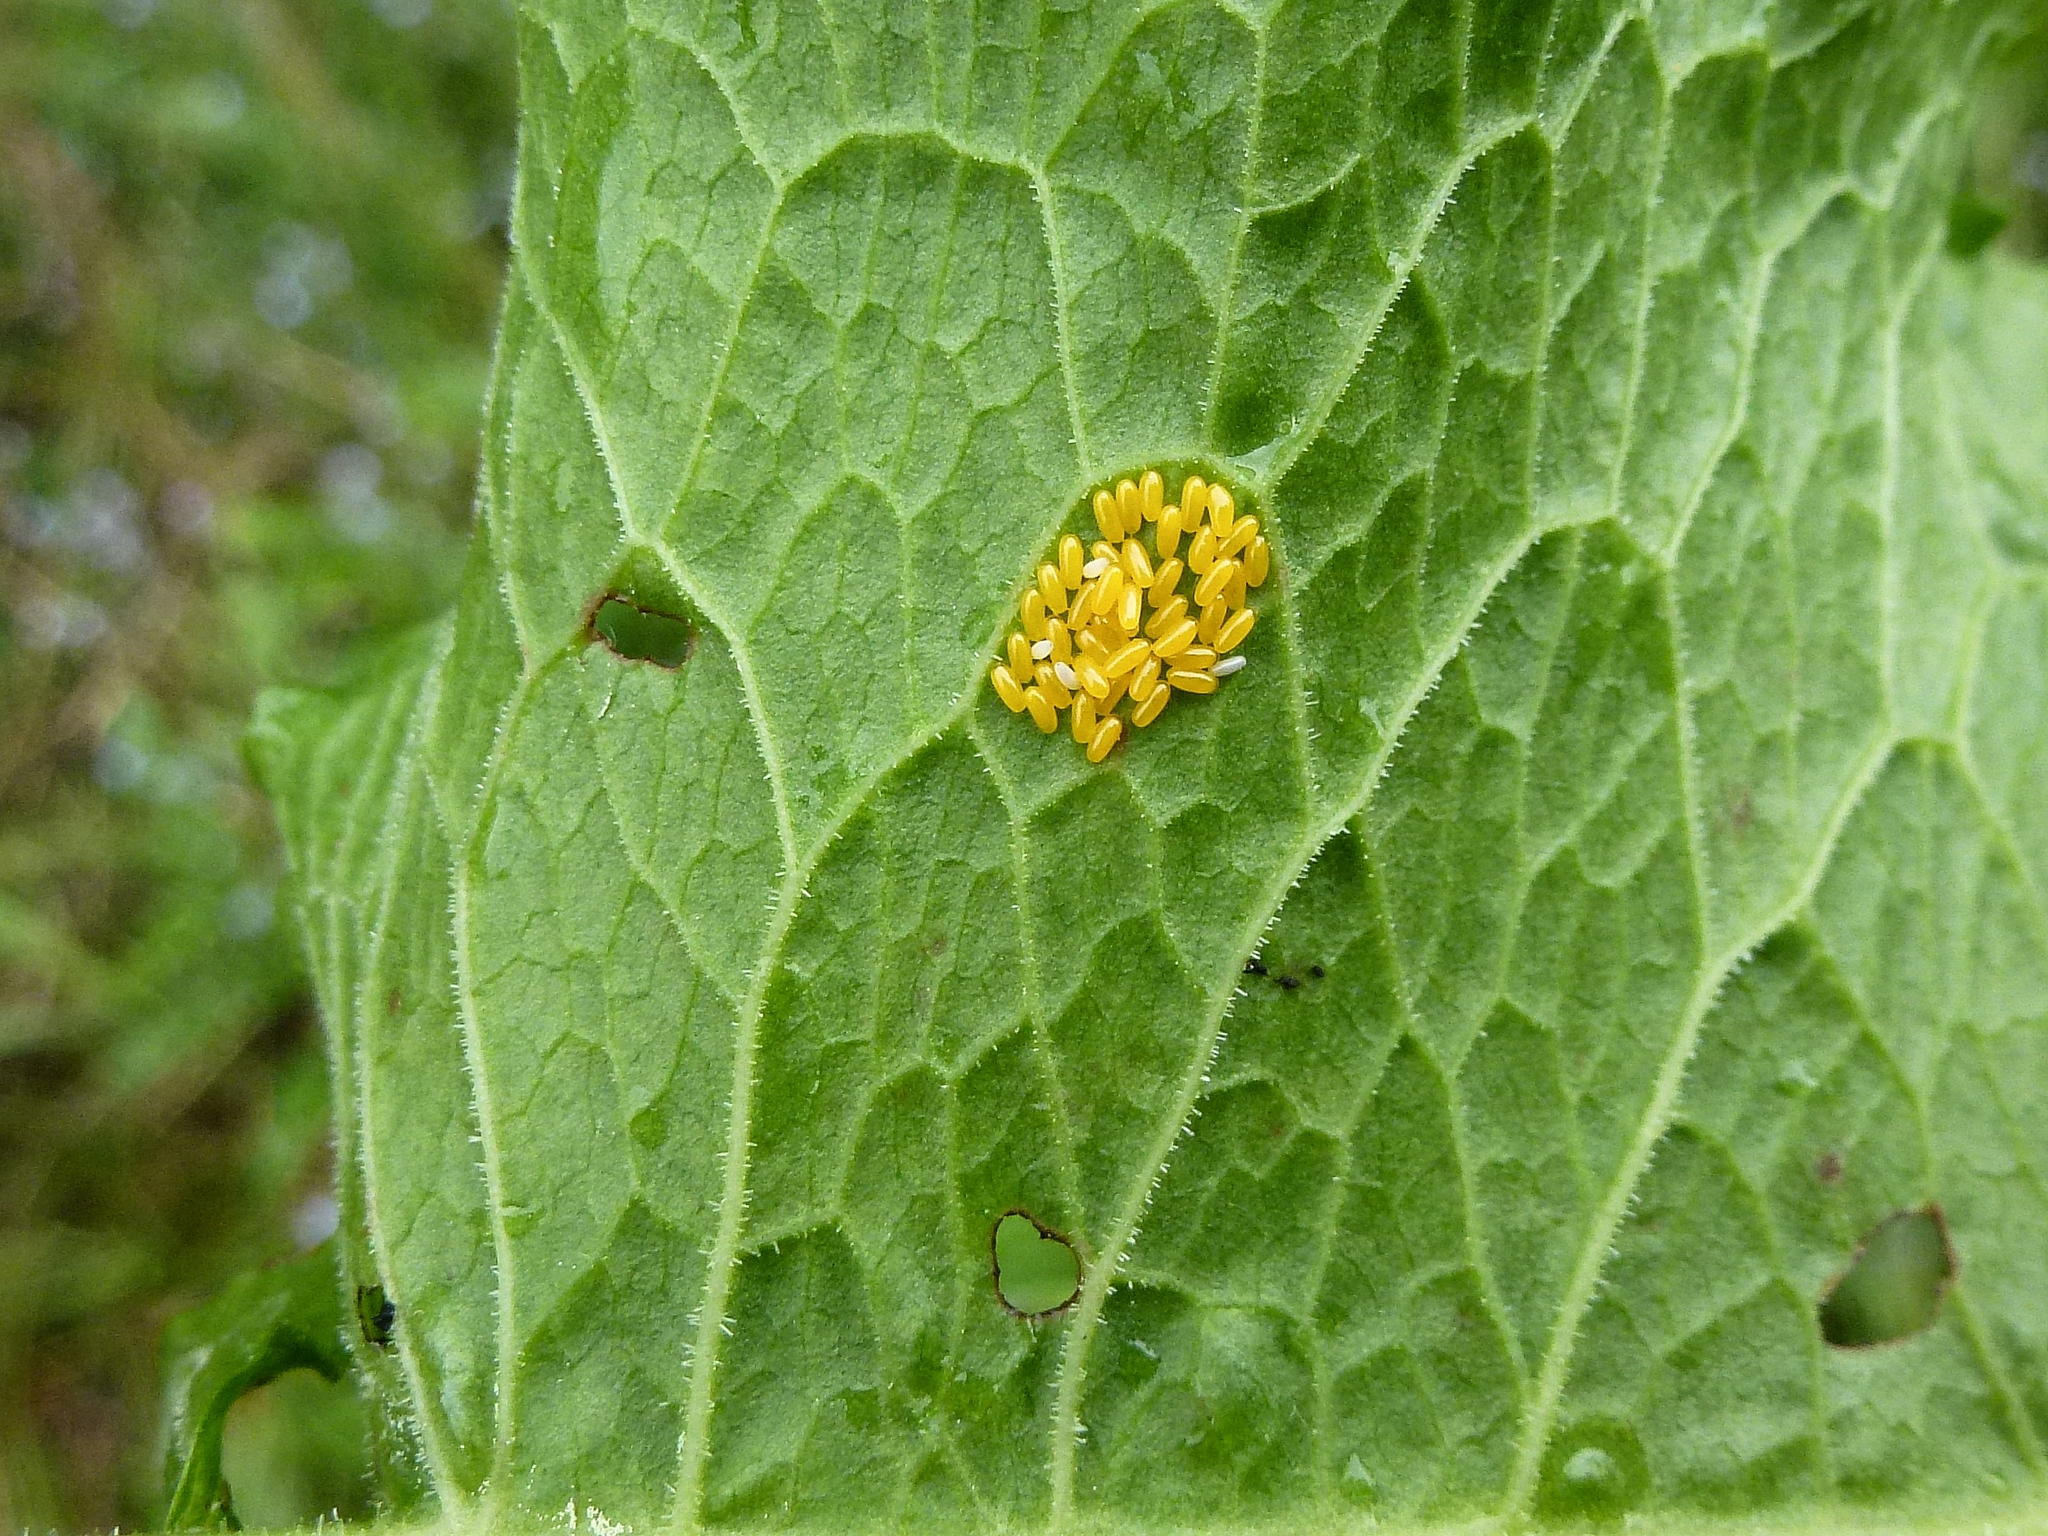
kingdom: Animalia
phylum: Arthropoda
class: Insecta
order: Diptera
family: Syrphidae
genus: Parasyrphus
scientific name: Parasyrphus nigritarsis
